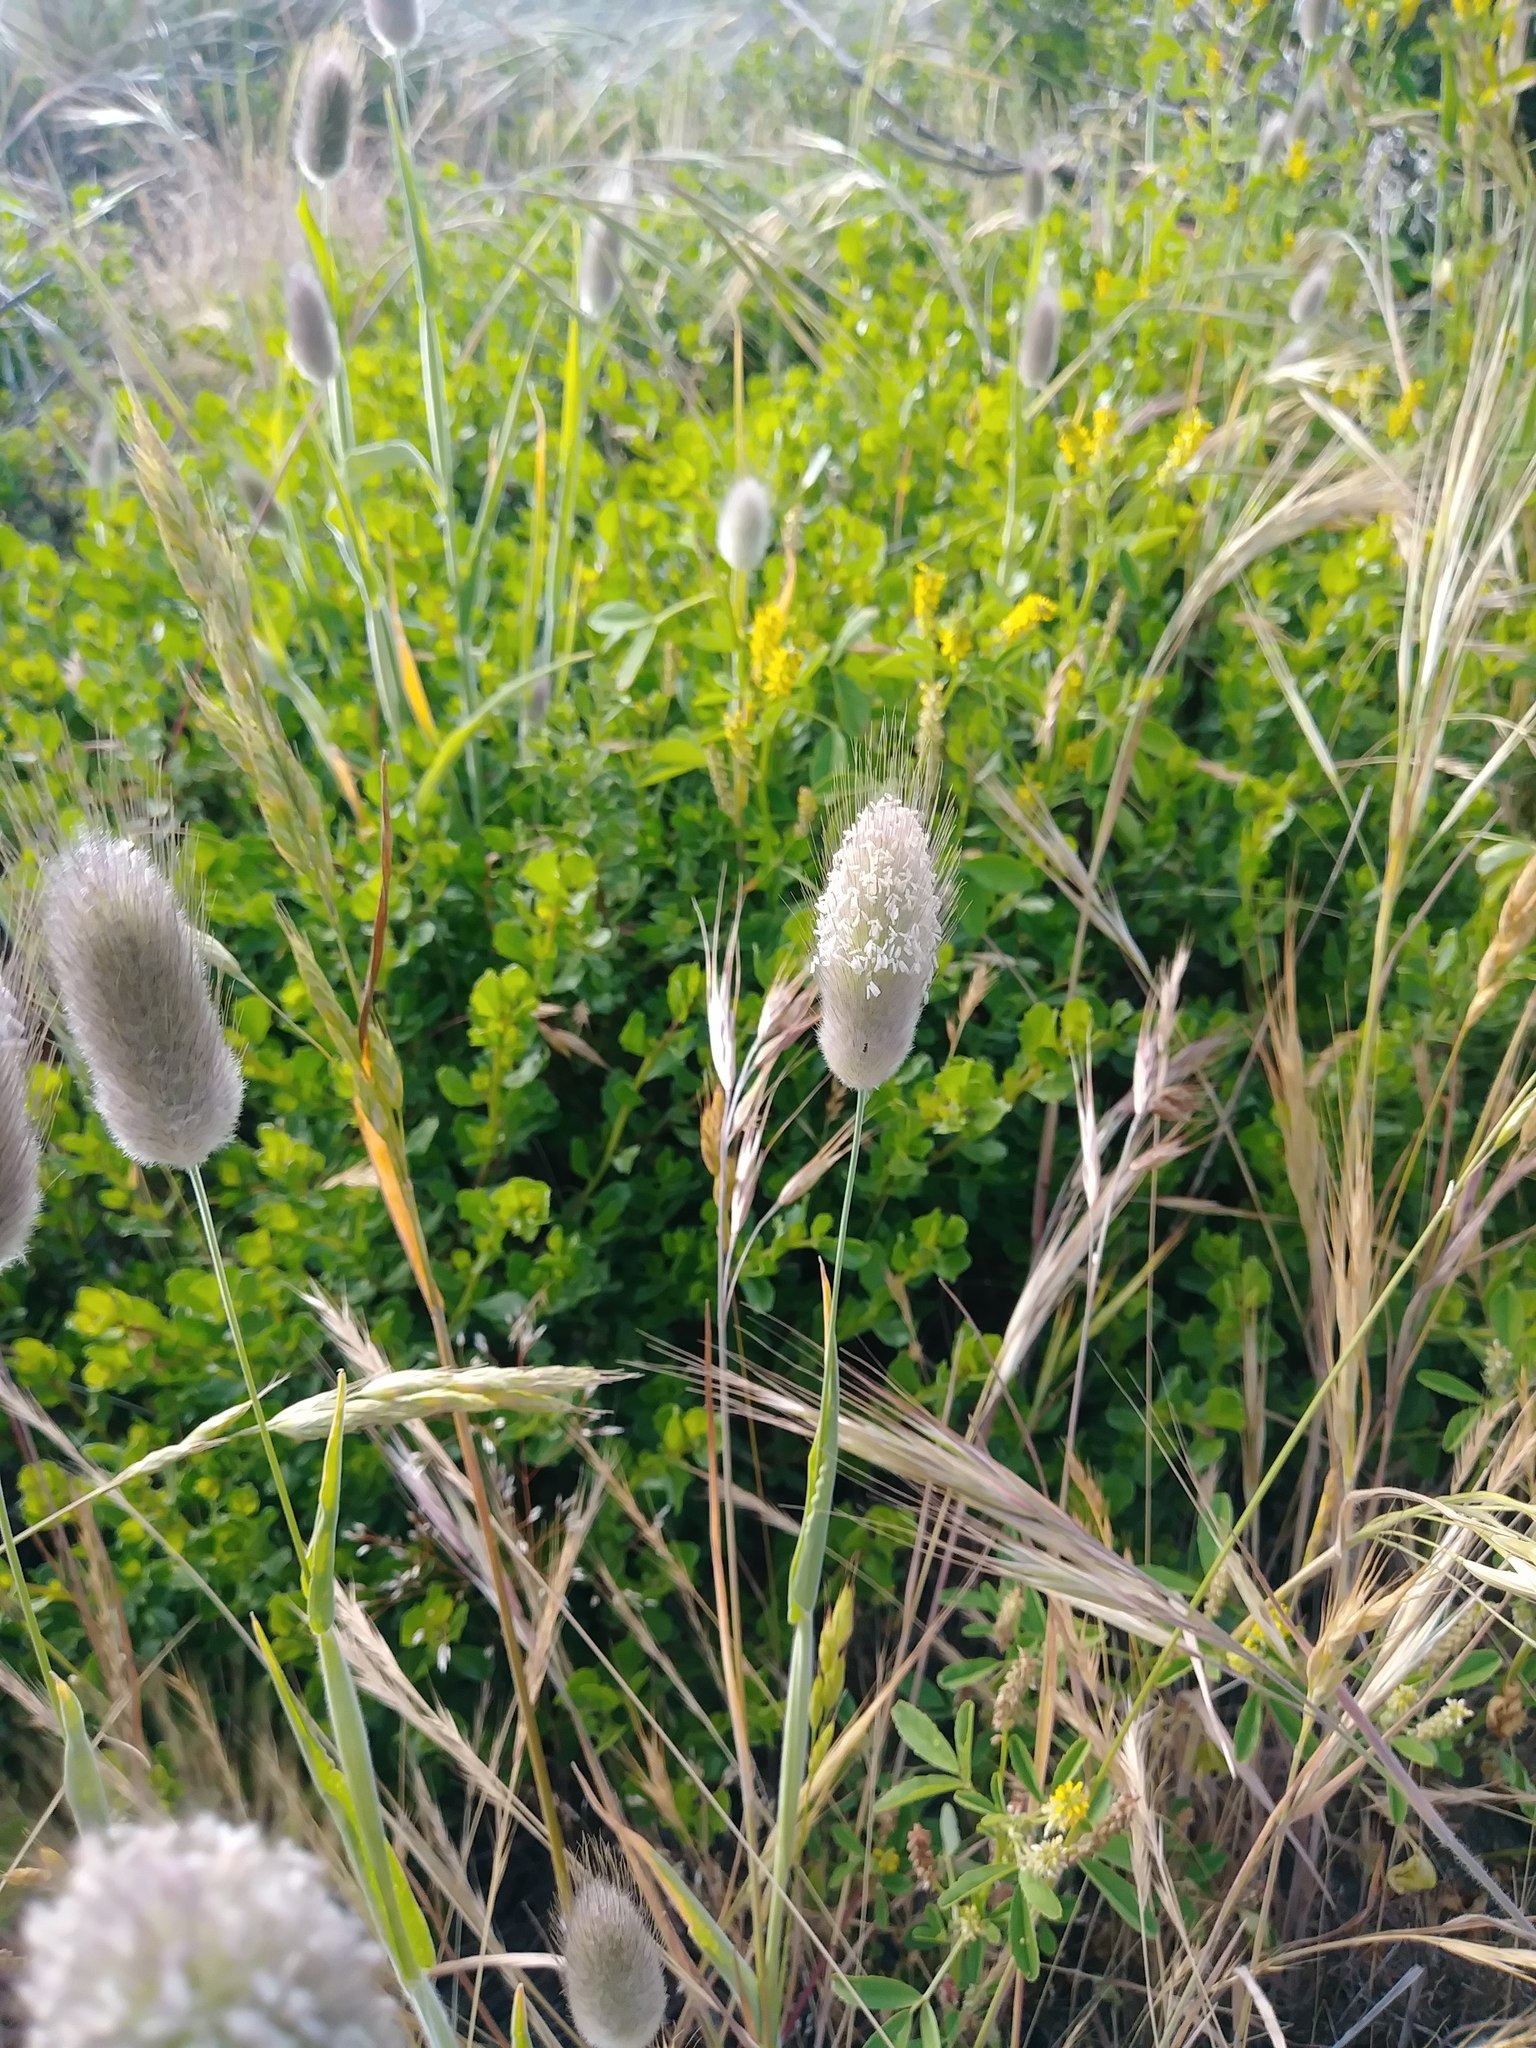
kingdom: Plantae
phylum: Tracheophyta
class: Liliopsida
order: Poales
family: Poaceae
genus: Lagurus
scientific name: Lagurus ovatus
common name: Hare's-tail
